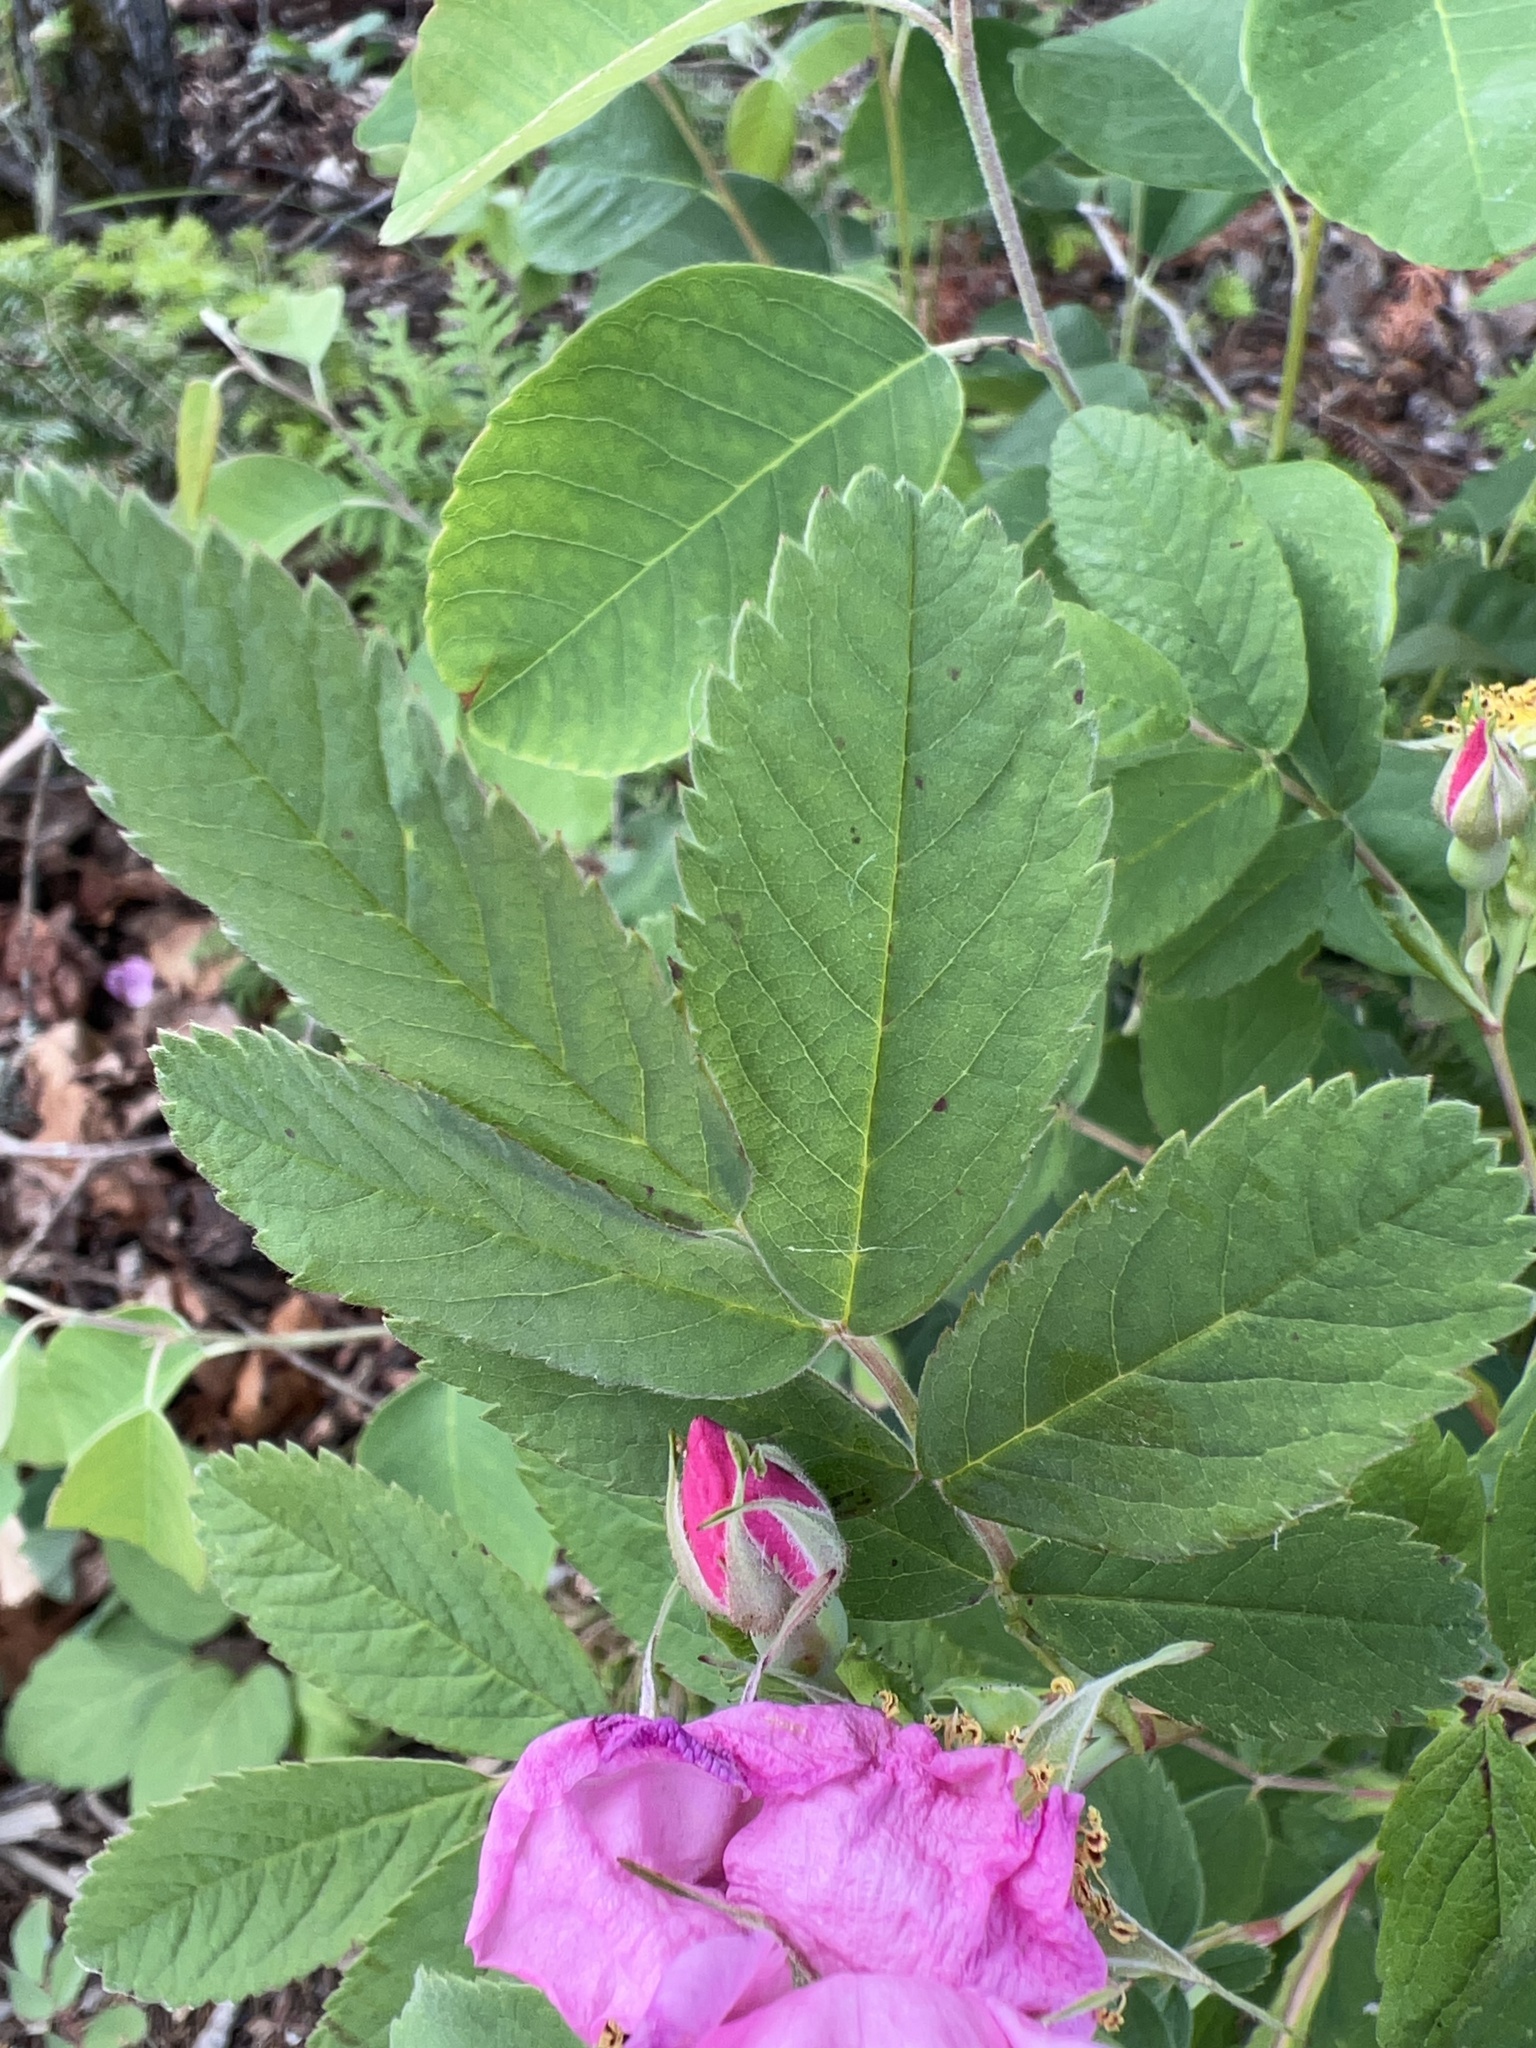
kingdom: Plantae
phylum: Tracheophyta
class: Magnoliopsida
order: Rosales
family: Rosaceae
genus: Rosa
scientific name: Rosa blanda
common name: Smooth rose
